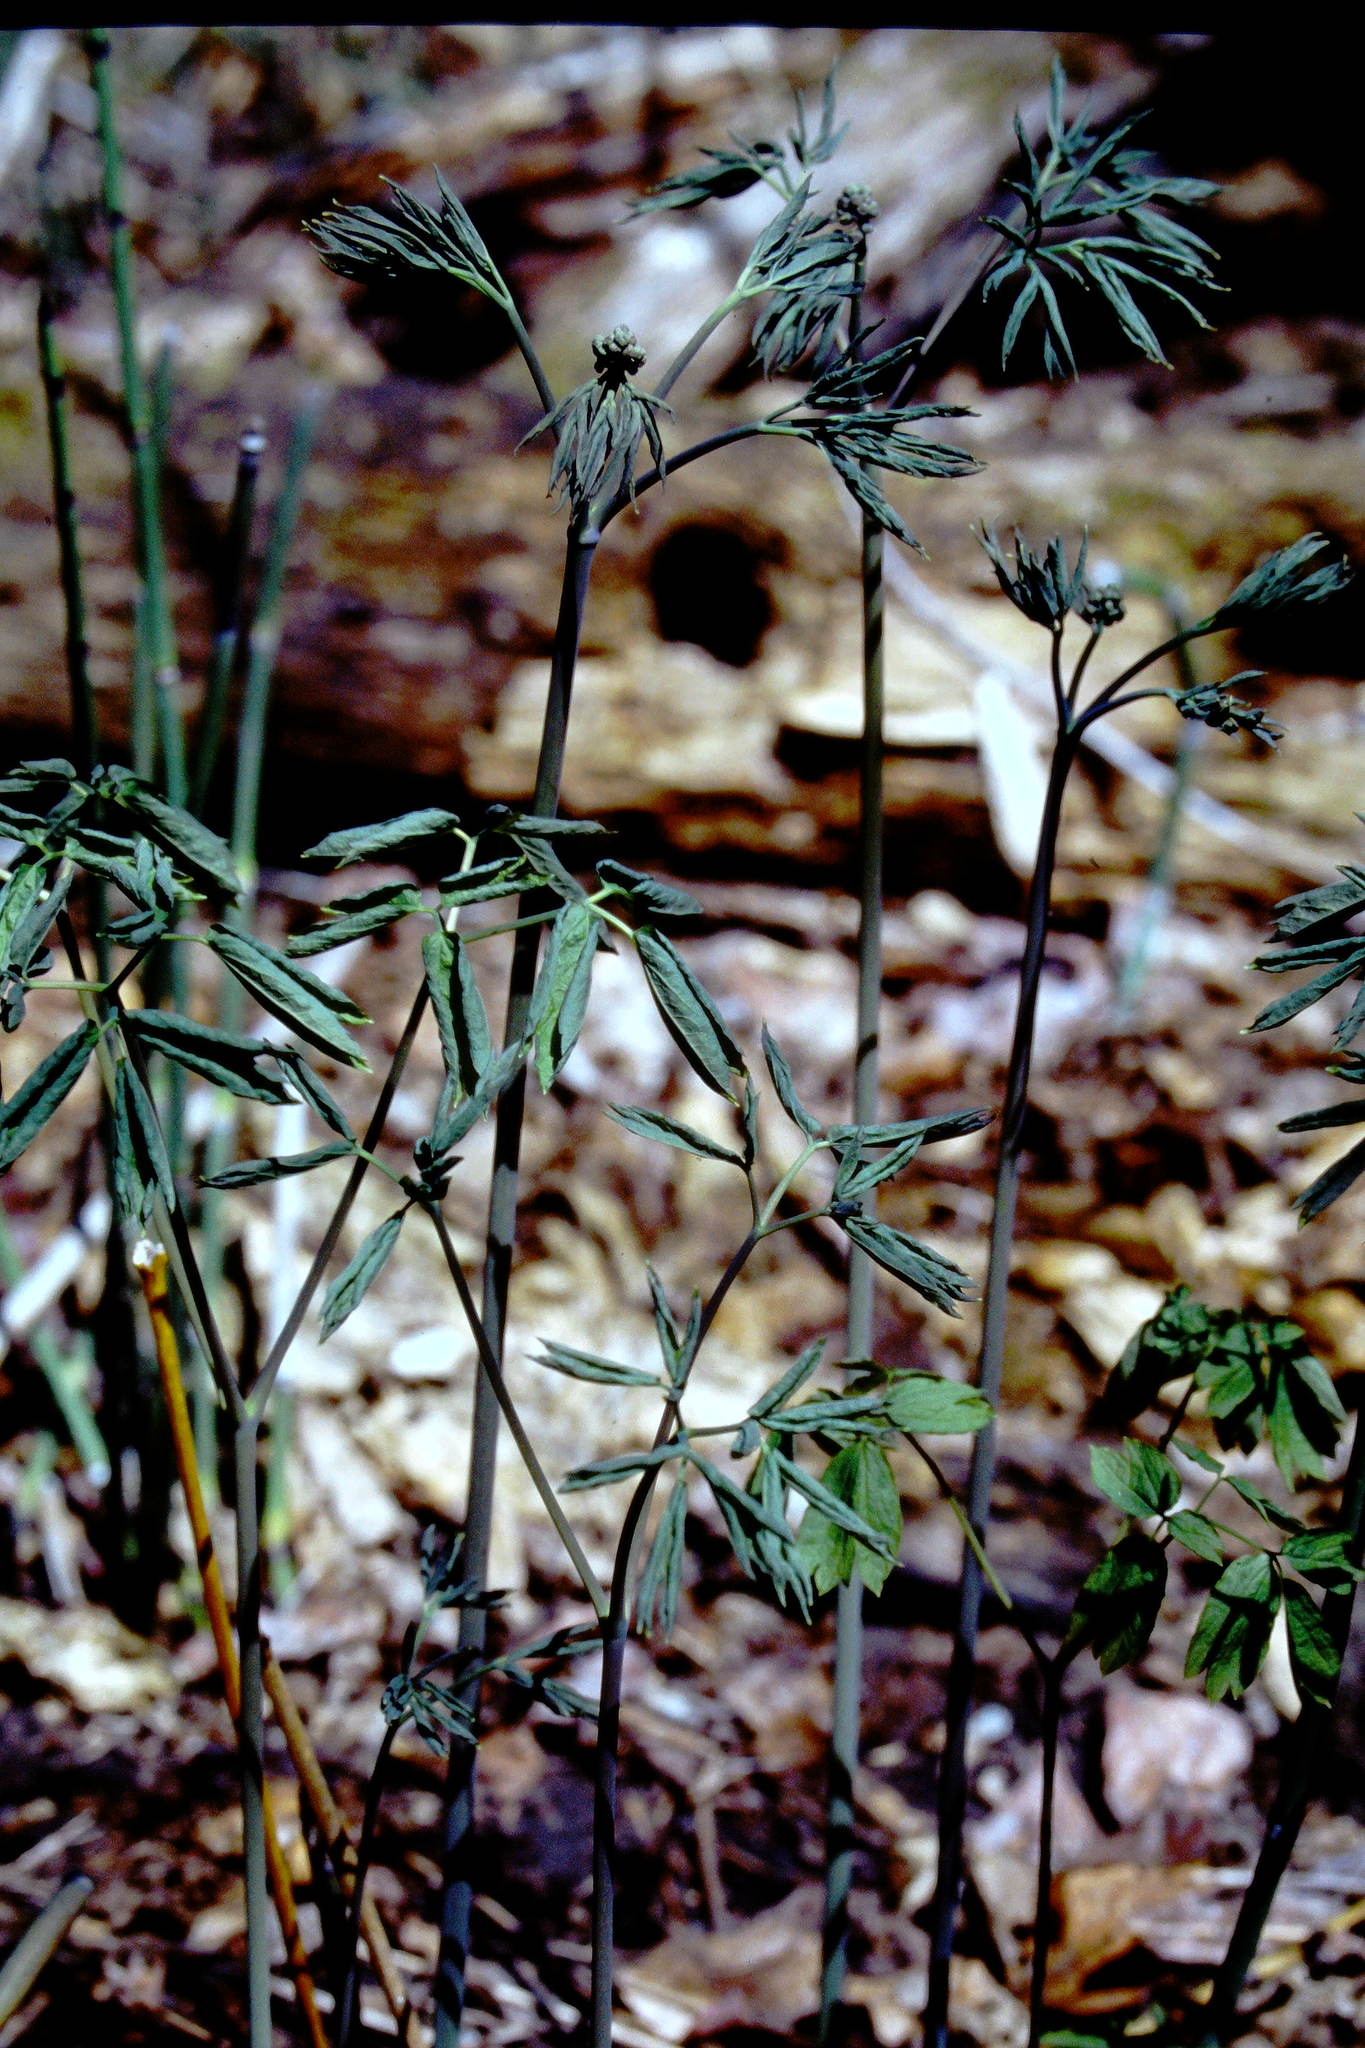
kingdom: Plantae
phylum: Tracheophyta
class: Magnoliopsida
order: Ranunculales
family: Berberidaceae
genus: Caulophyllum
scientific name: Caulophyllum thalictroides
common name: Blue cohosh
